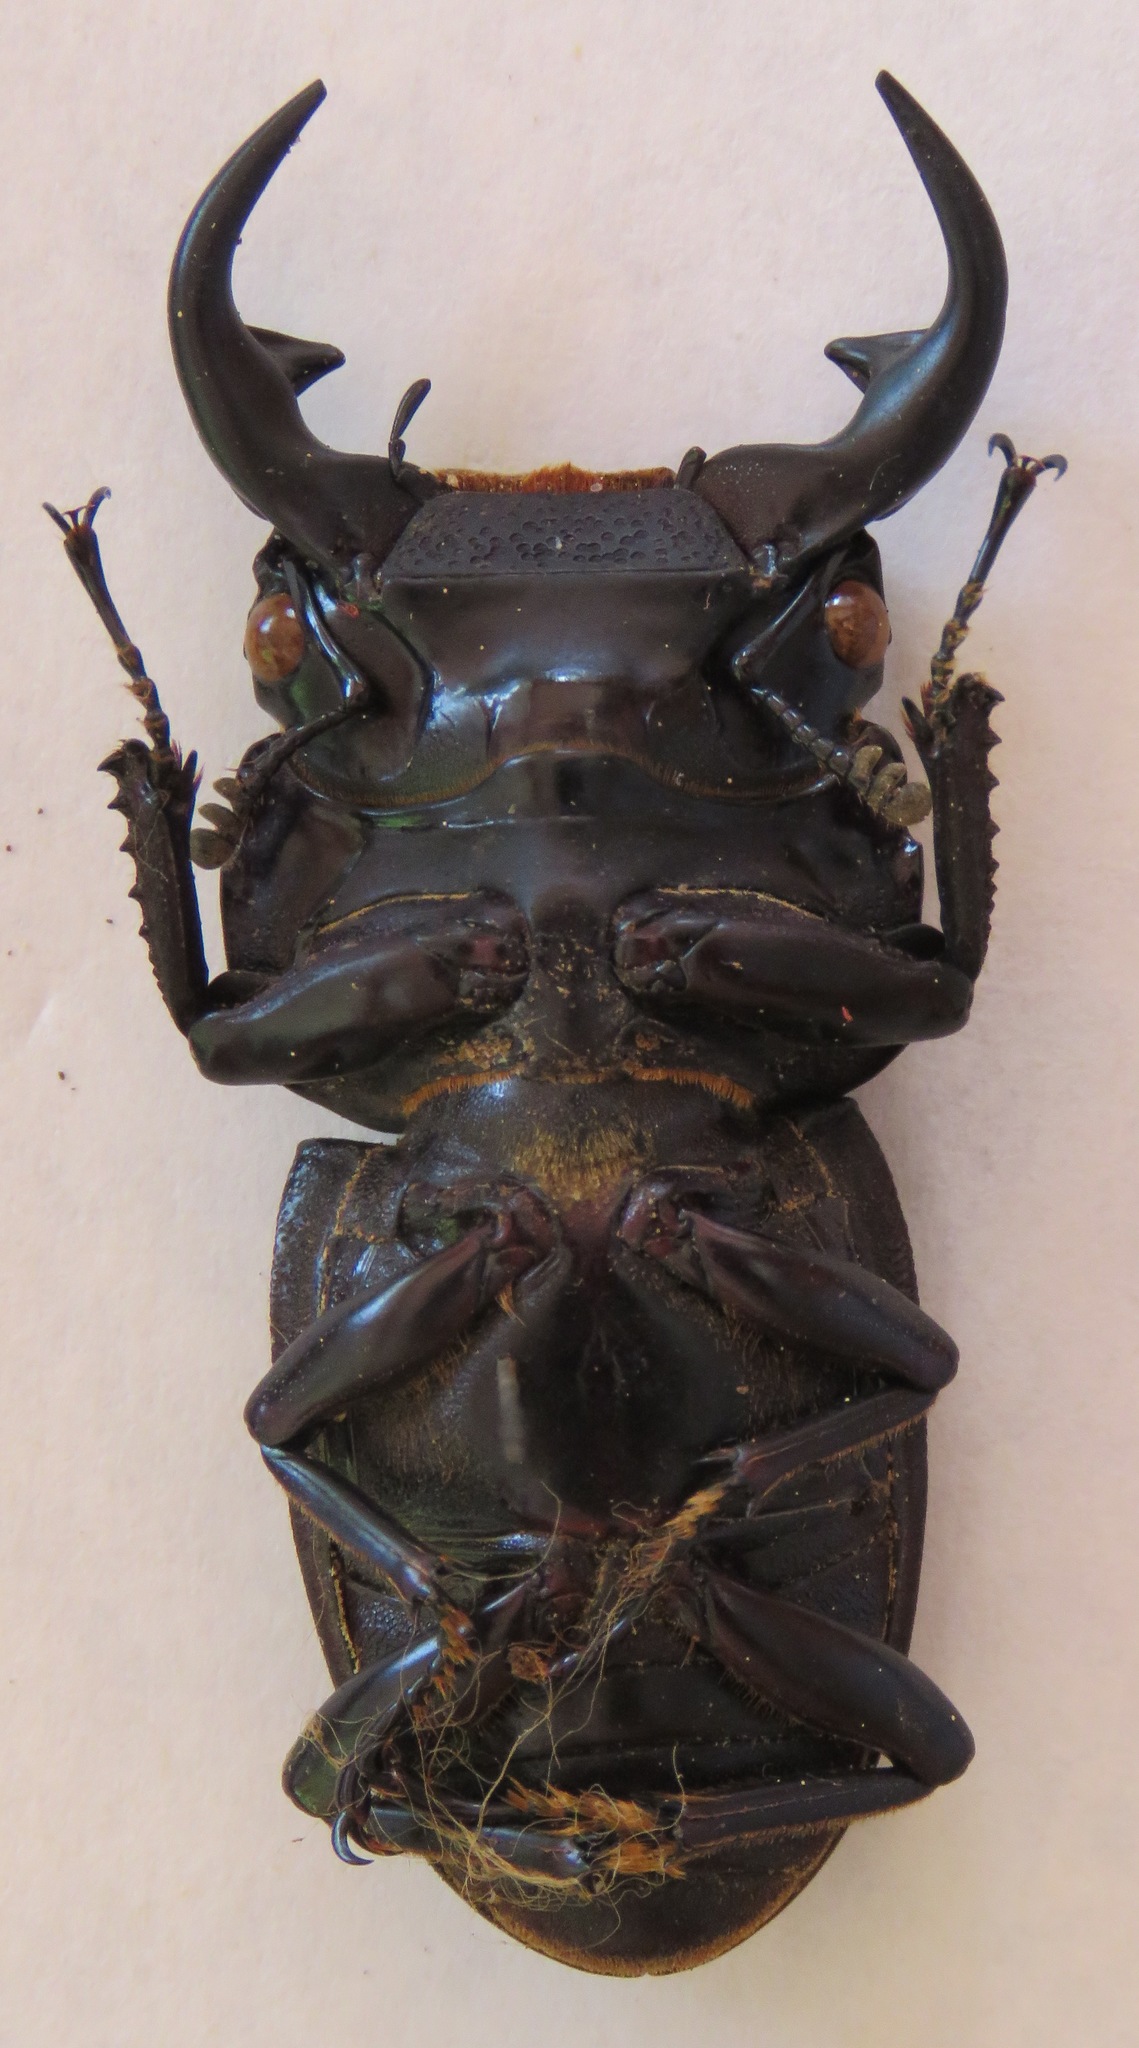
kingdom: Animalia
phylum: Arthropoda
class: Insecta
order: Coleoptera
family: Lucanidae
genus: Dorcus
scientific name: Dorcus curvidens
